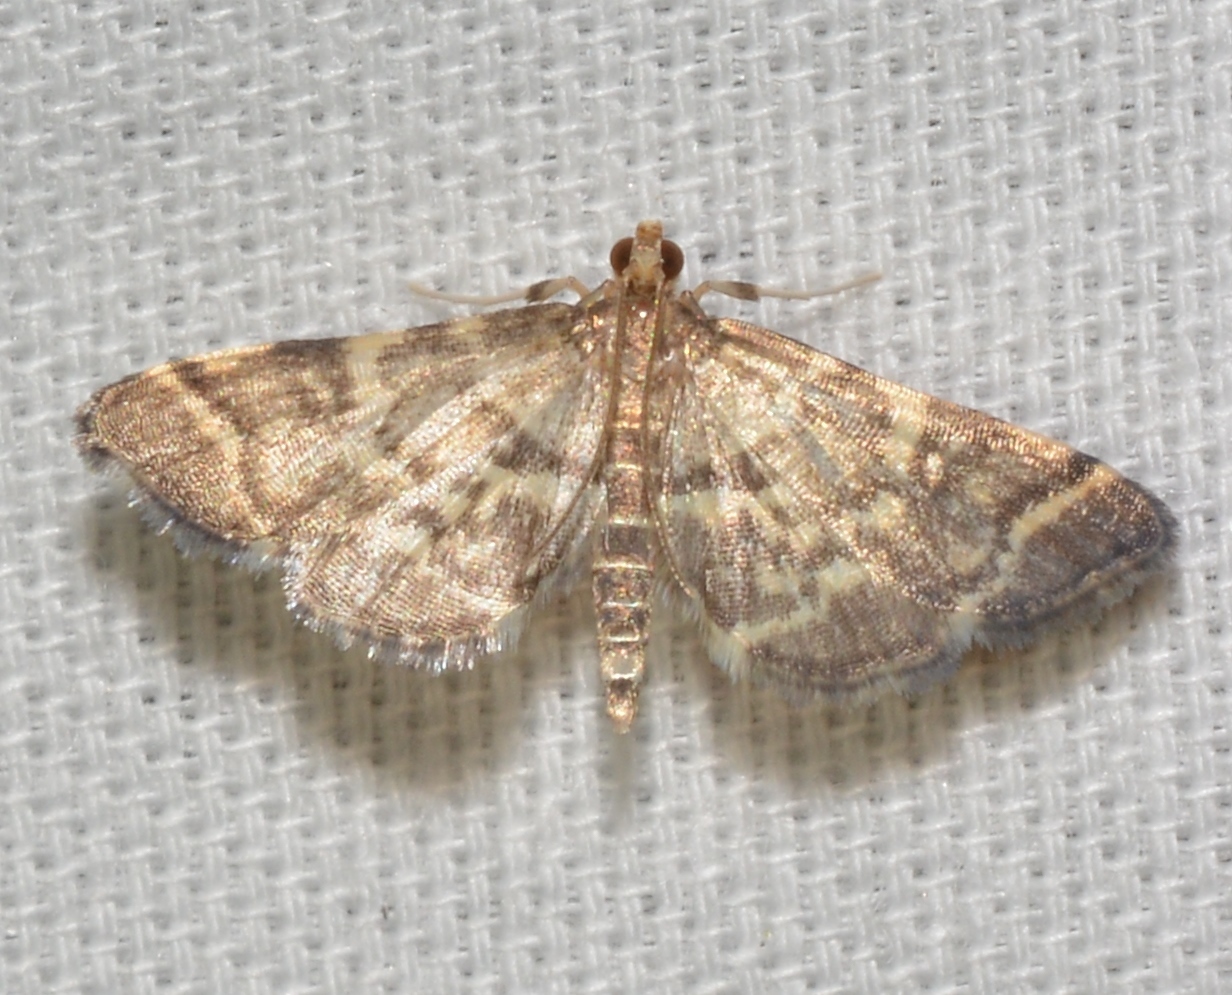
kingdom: Animalia
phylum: Arthropoda
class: Insecta
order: Lepidoptera
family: Crambidae
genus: Anageshna
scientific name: Anageshna primordialis
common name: Yellow-spotted webworm moth
